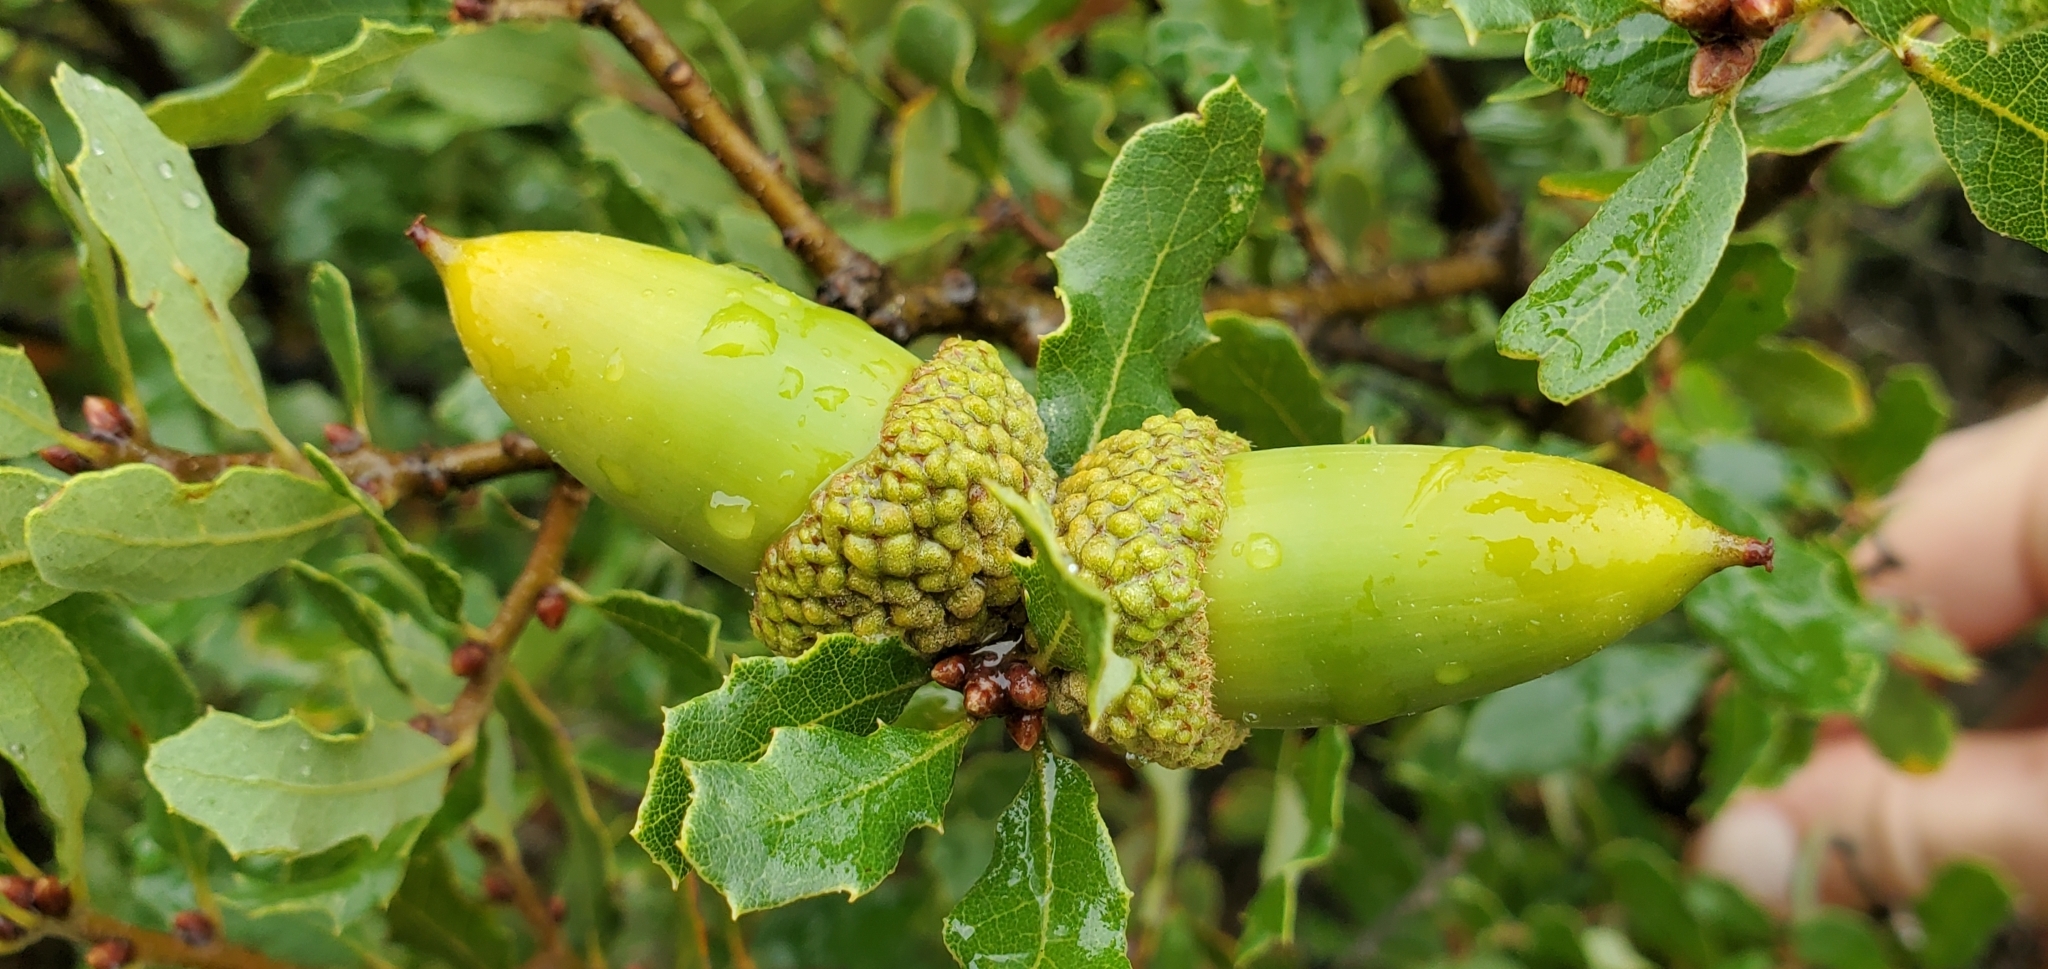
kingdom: Plantae
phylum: Tracheophyta
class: Magnoliopsida
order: Fagales
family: Fagaceae
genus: Quercus
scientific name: Quercus berberidifolia
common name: California scrub oak
